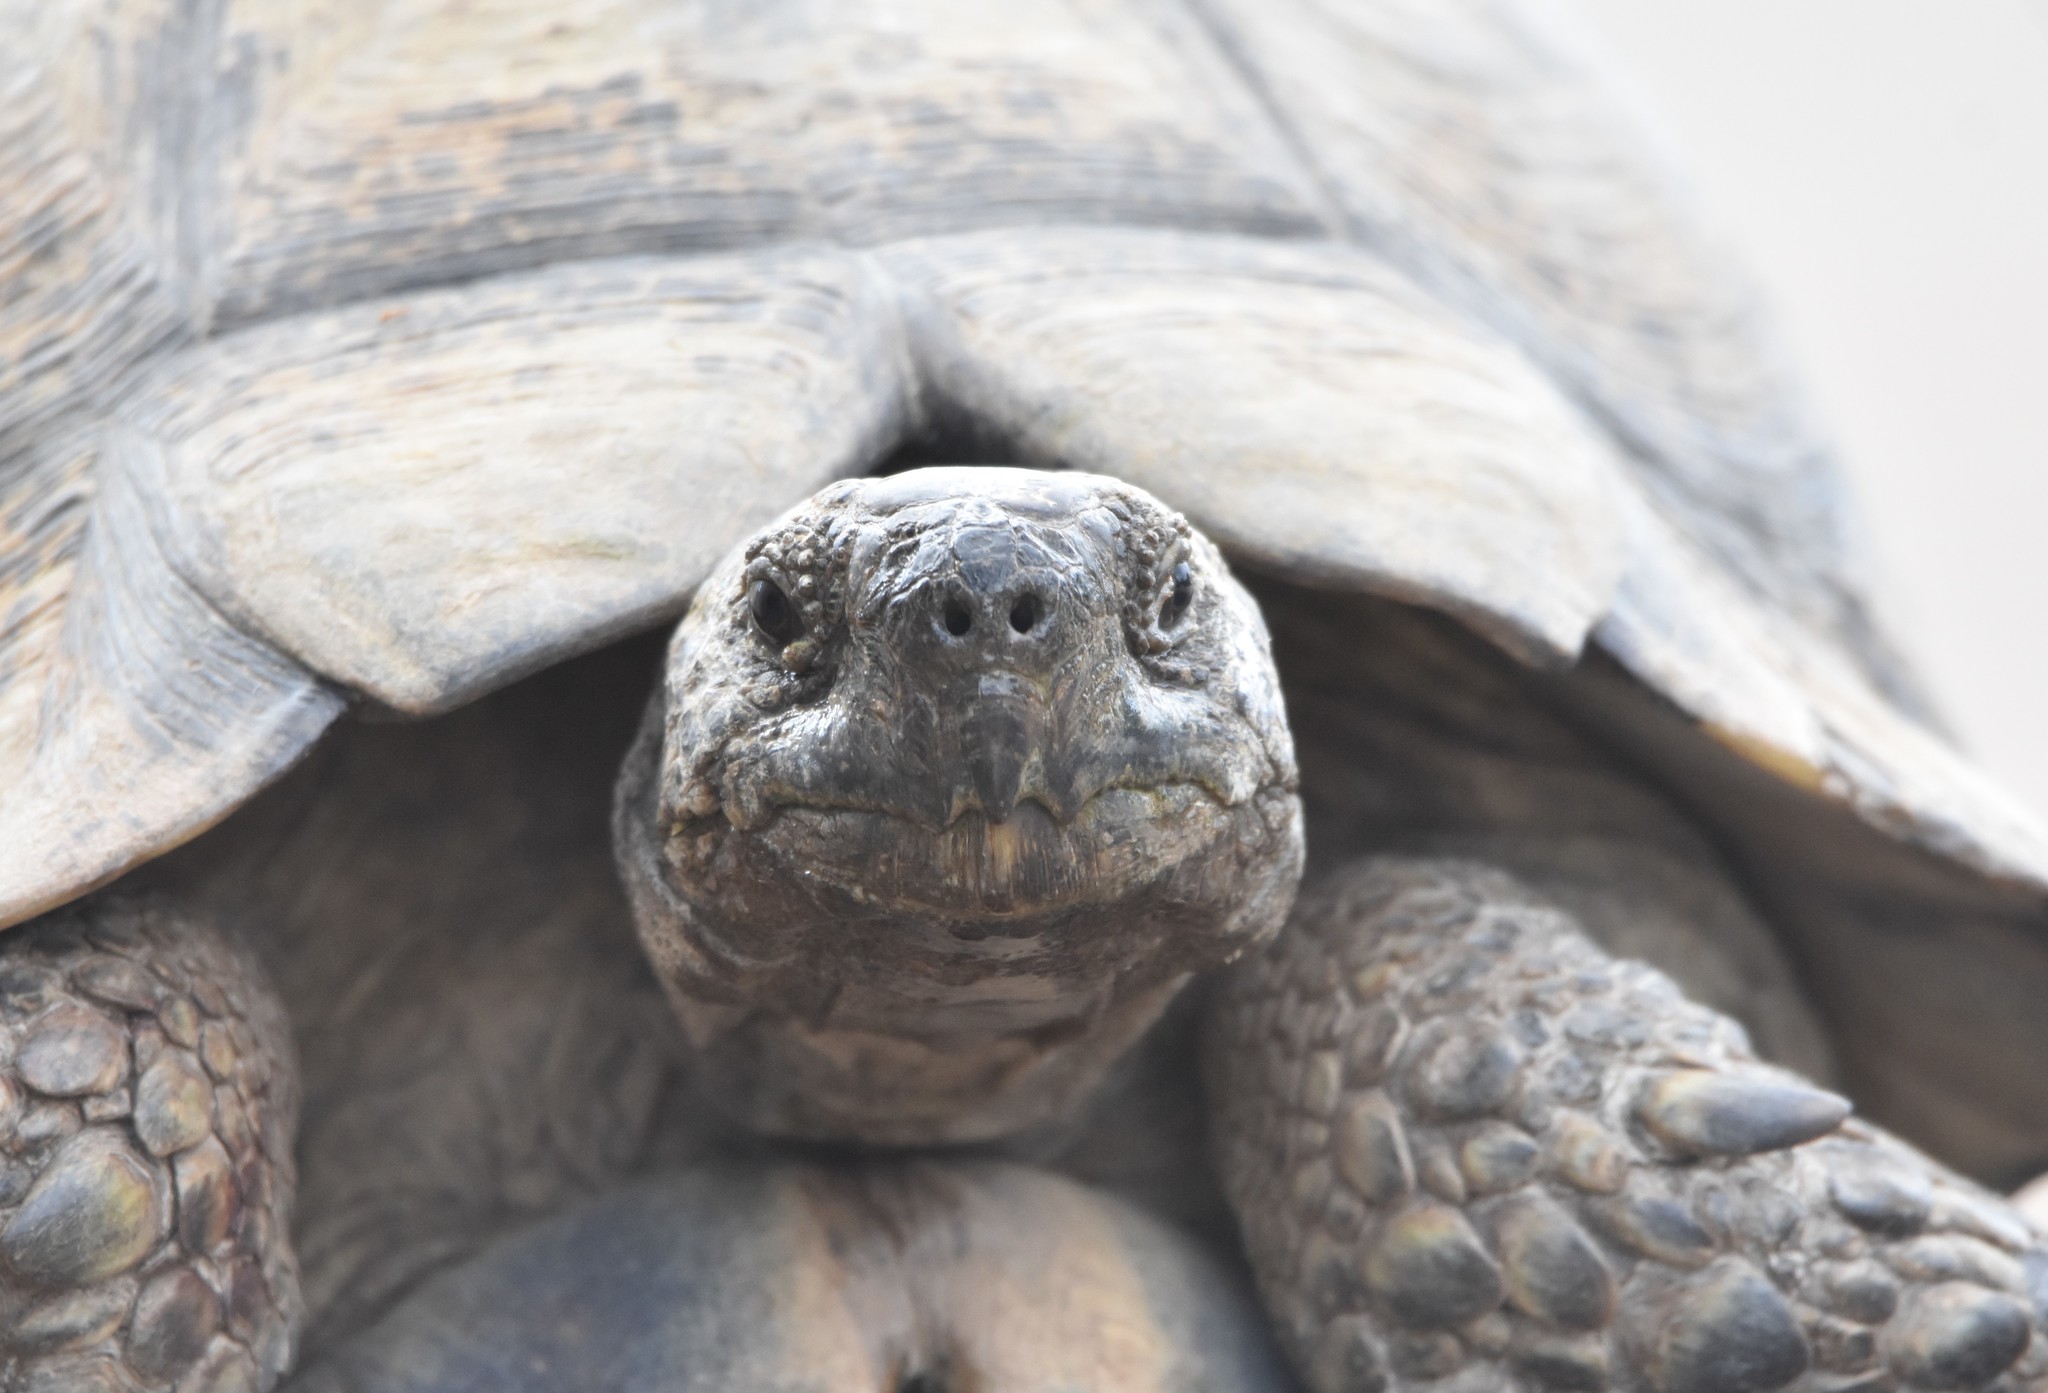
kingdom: Animalia
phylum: Chordata
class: Testudines
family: Testudinidae
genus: Stigmochelys
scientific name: Stigmochelys pardalis
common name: Leopard tortoise
